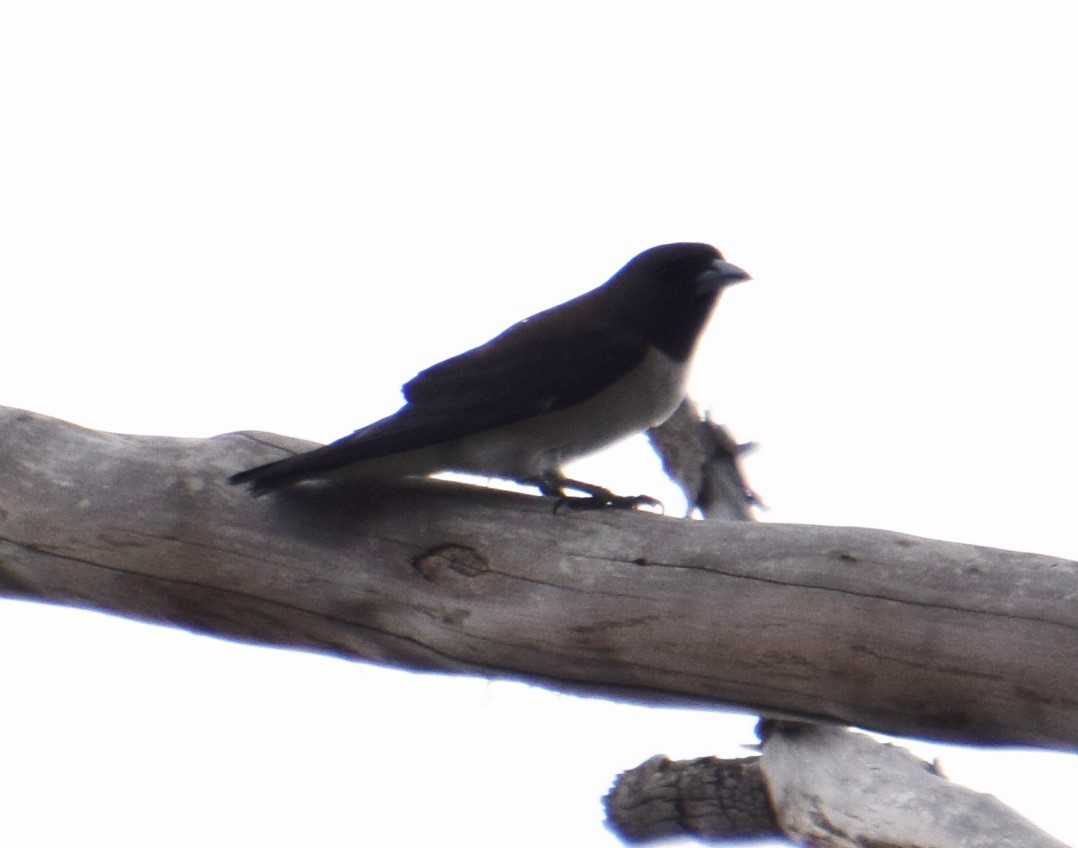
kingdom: Animalia
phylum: Chordata
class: Aves
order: Passeriformes
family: Artamidae
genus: Artamus
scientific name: Artamus leucoryn
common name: White-breasted woodswallow
